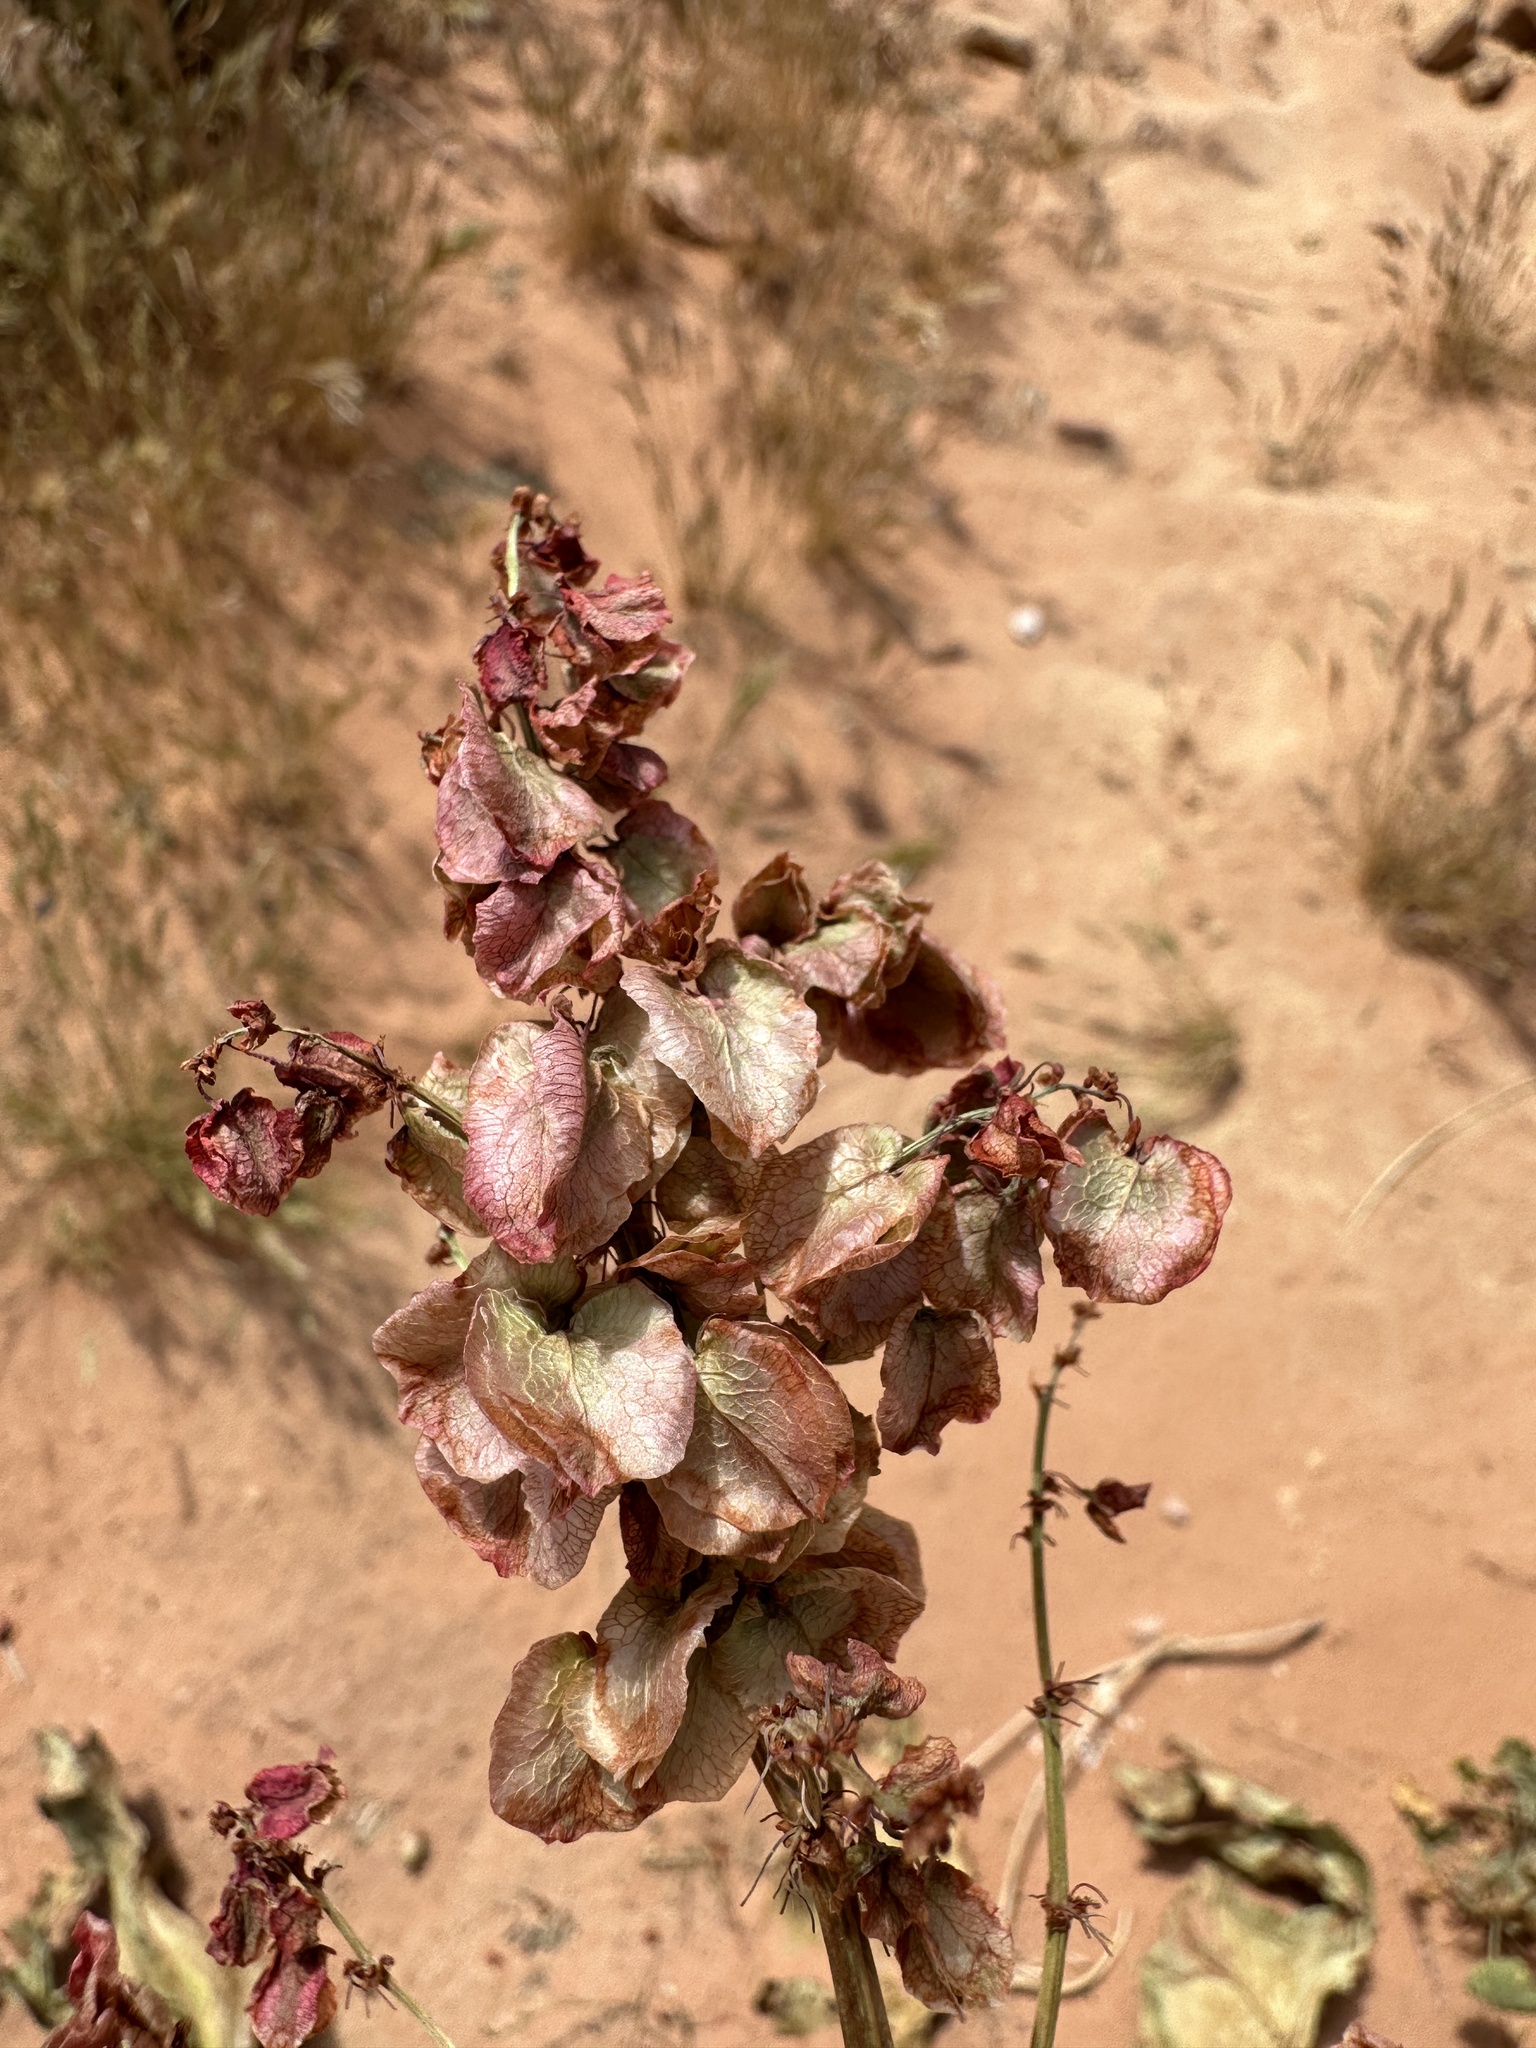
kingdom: Plantae
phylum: Tracheophyta
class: Magnoliopsida
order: Caryophyllales
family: Polygonaceae
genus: Rumex
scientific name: Rumex hymenosepalus
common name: Ganagra
